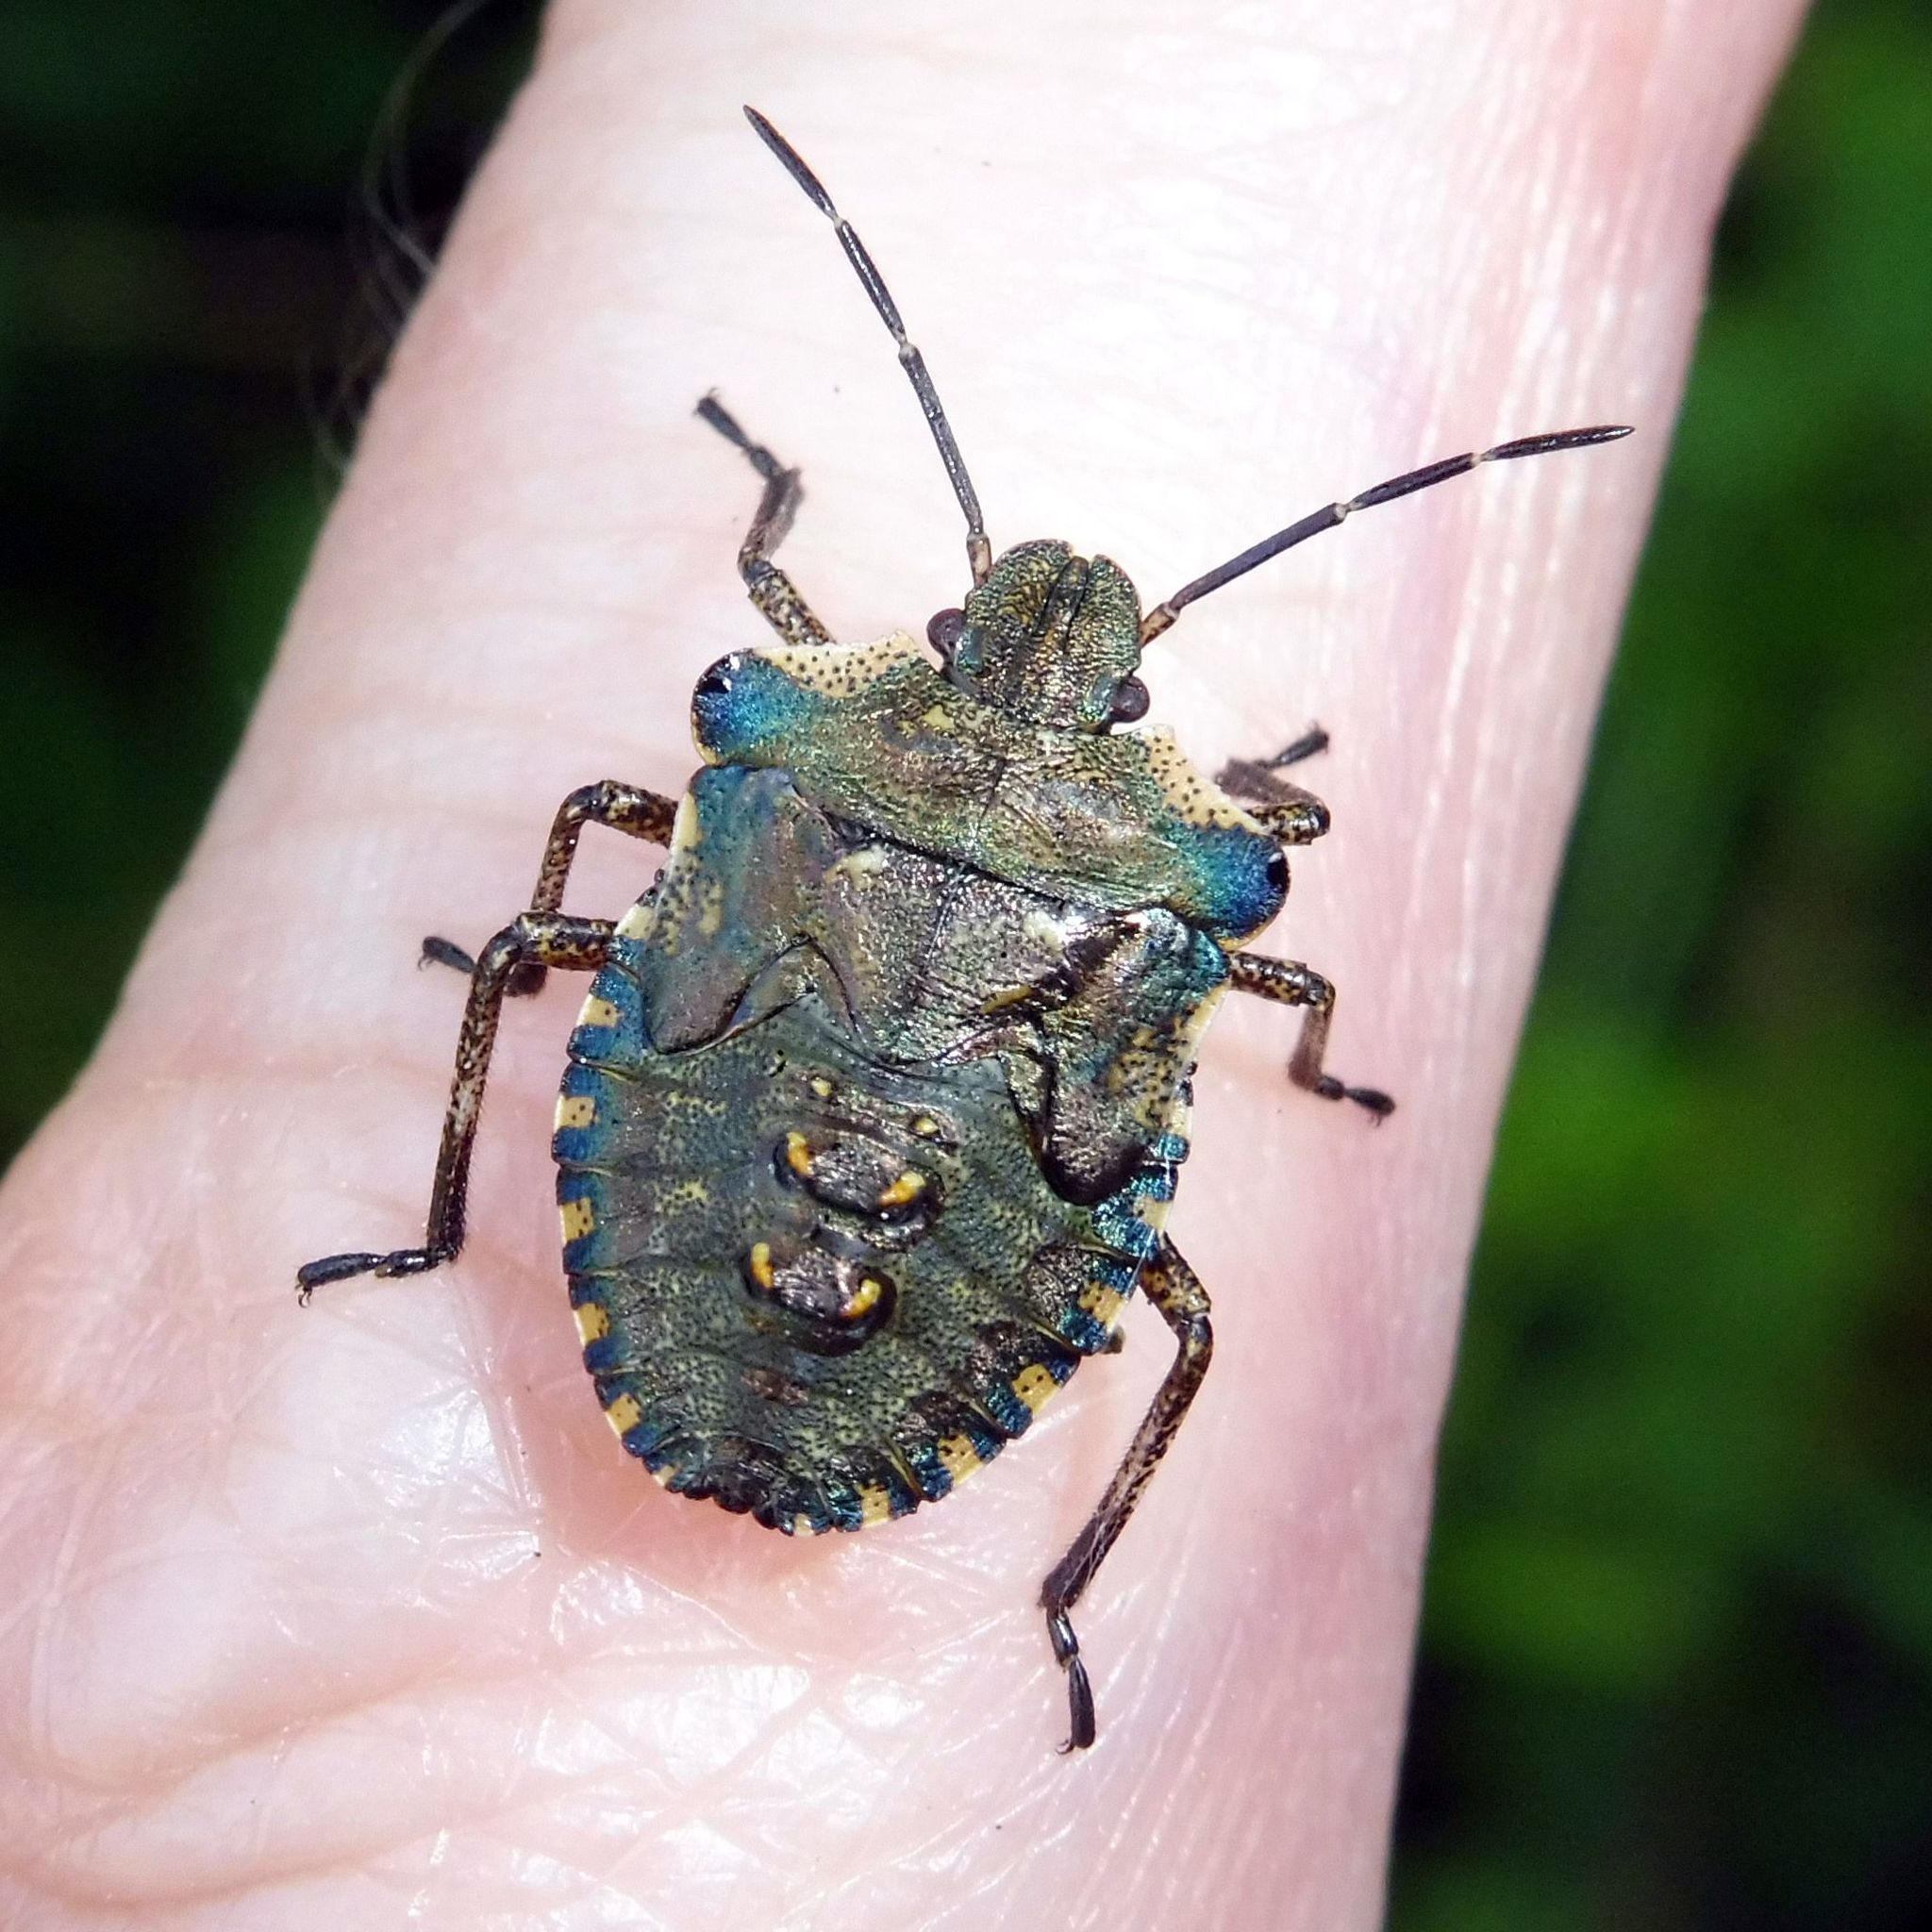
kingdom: Animalia
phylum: Arthropoda
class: Insecta
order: Hemiptera
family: Pentatomidae
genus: Pentatoma
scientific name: Pentatoma rufipes
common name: Forest bug
